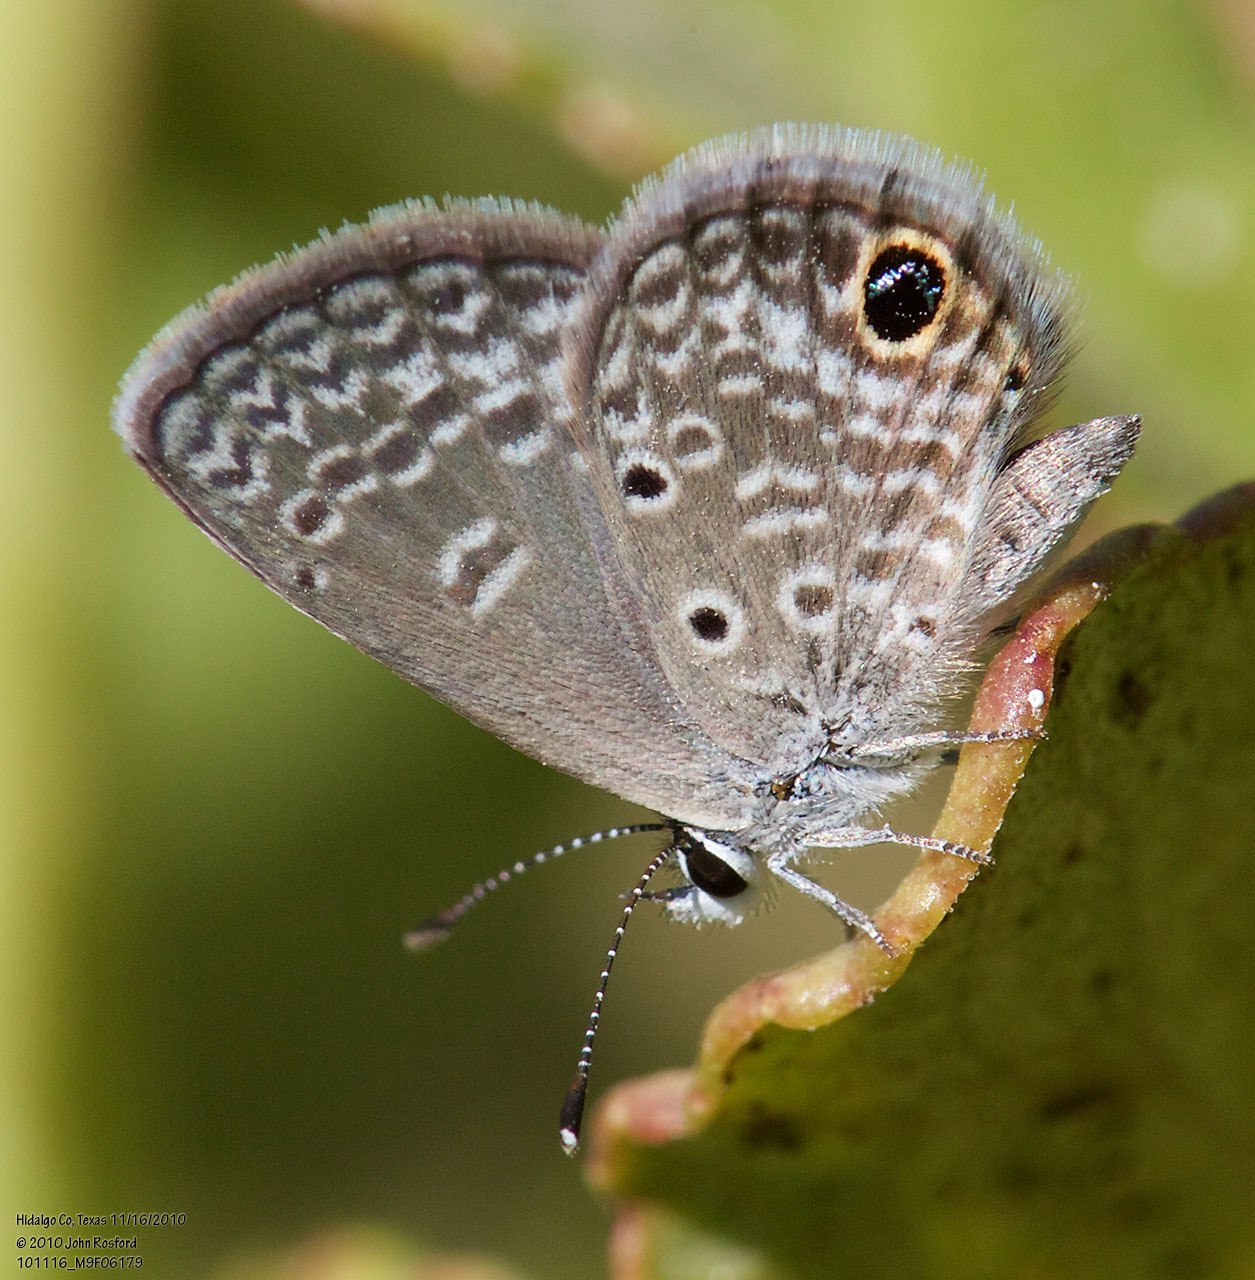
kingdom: Animalia
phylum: Arthropoda
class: Insecta
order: Lepidoptera
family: Lycaenidae
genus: Hemiargus
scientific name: Hemiargus ceraunus
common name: Ceraunus blue
